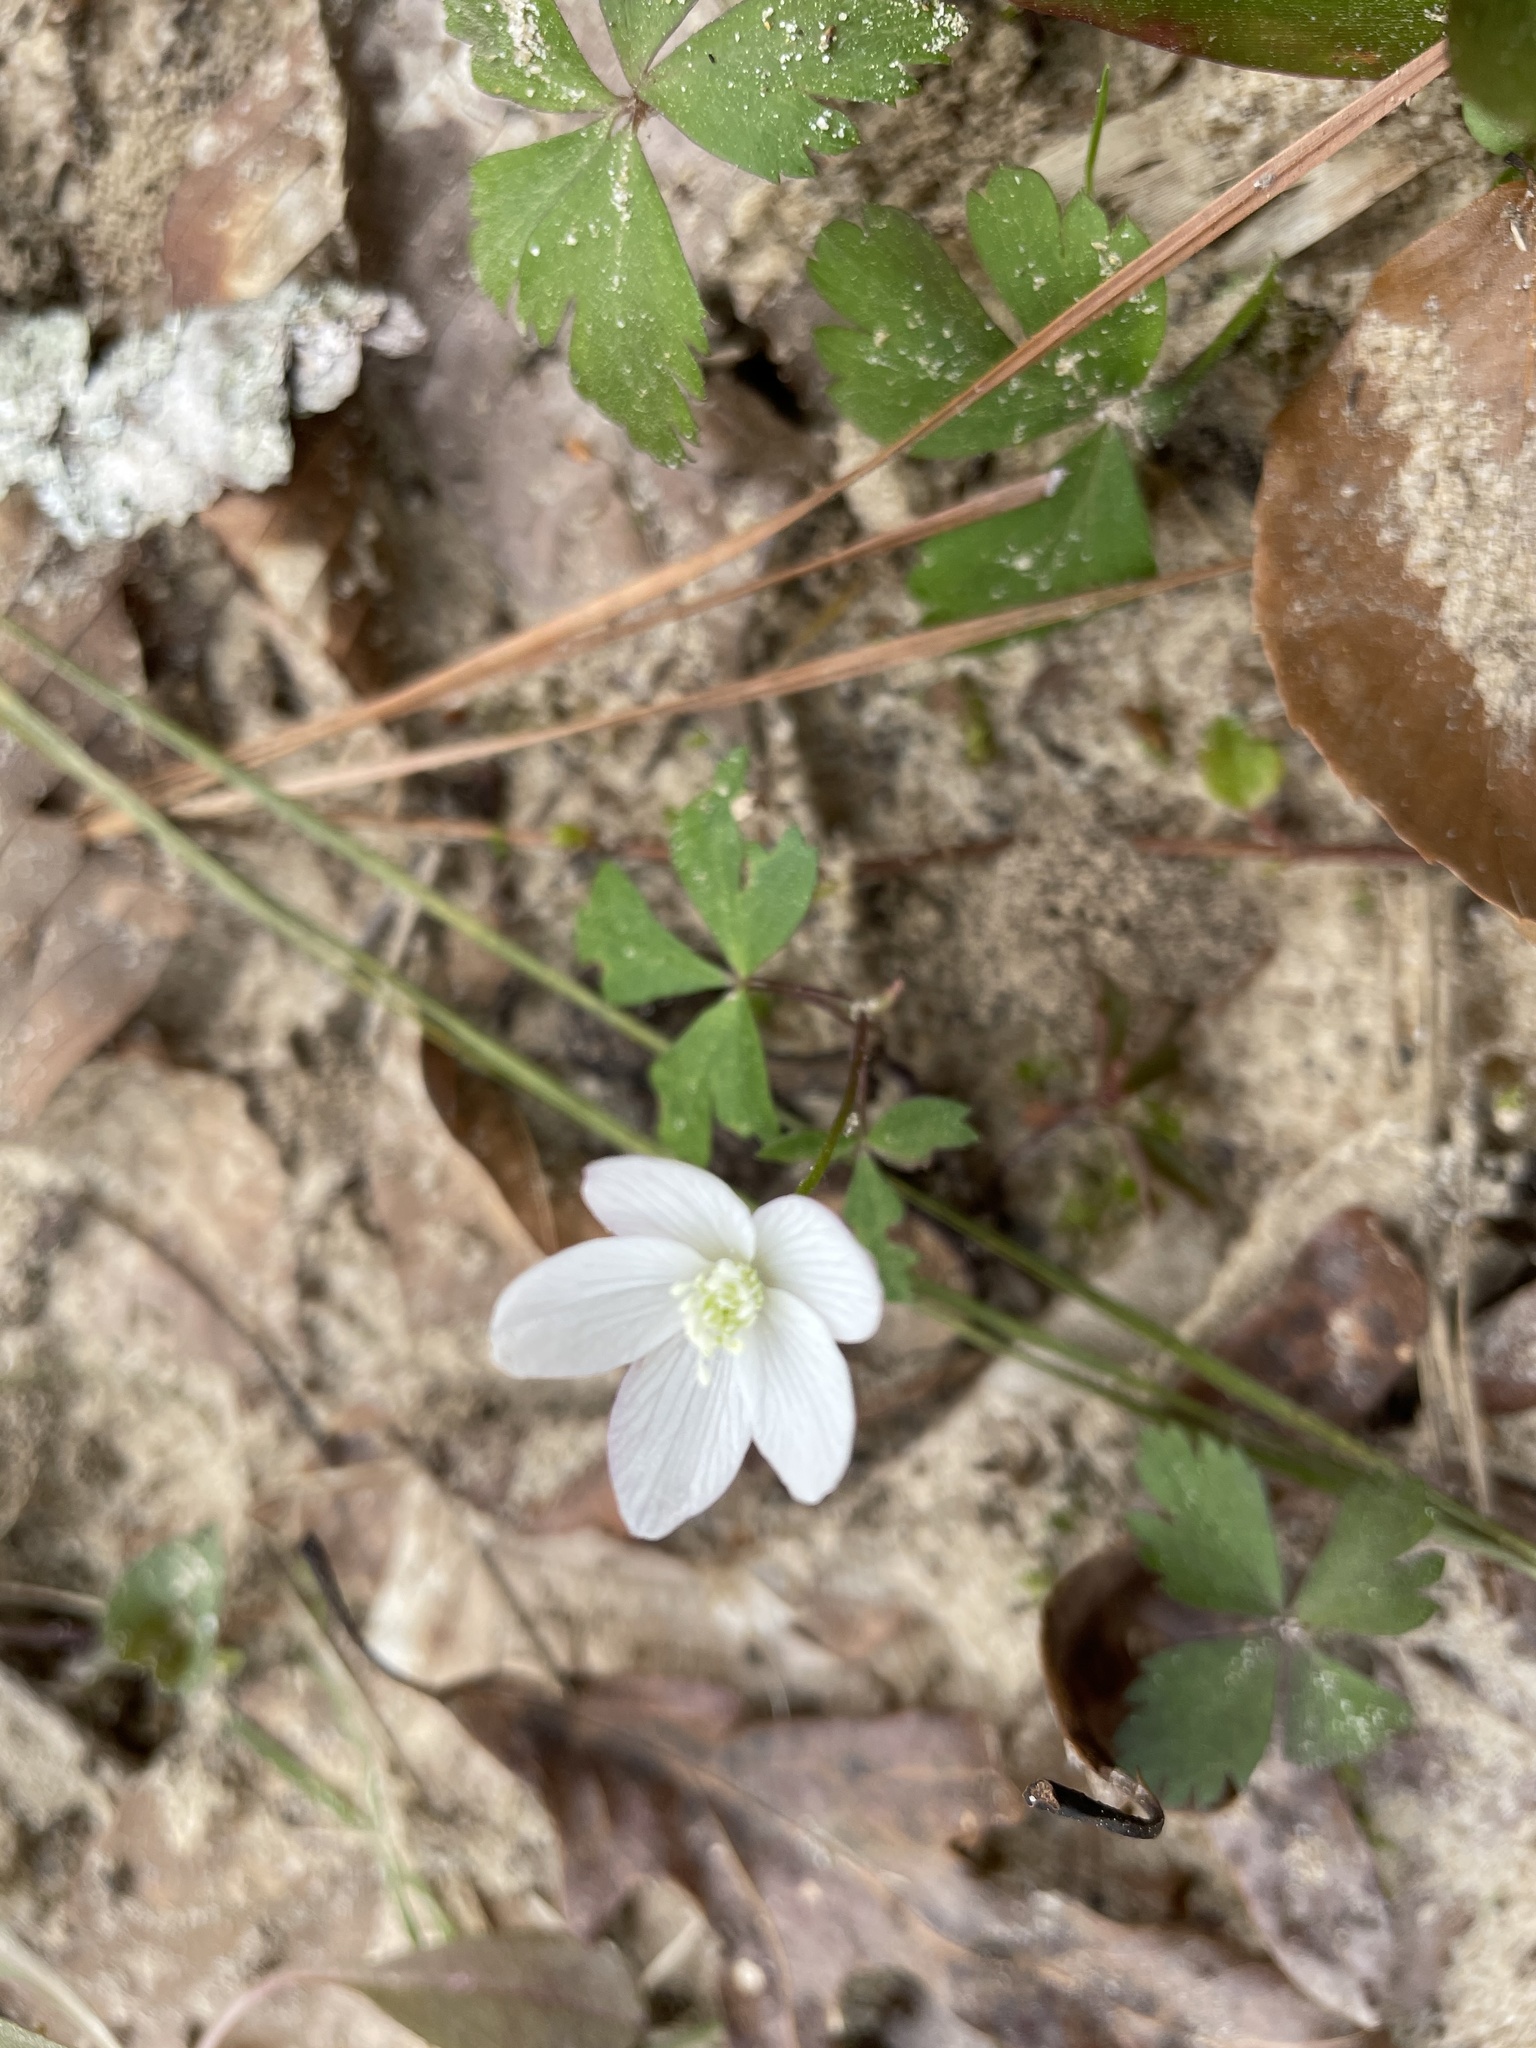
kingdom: Plantae
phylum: Tracheophyta
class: Magnoliopsida
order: Ranunculales
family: Ranunculaceae
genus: Anemone
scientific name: Anemone quinquefolia
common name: Wood anemone
